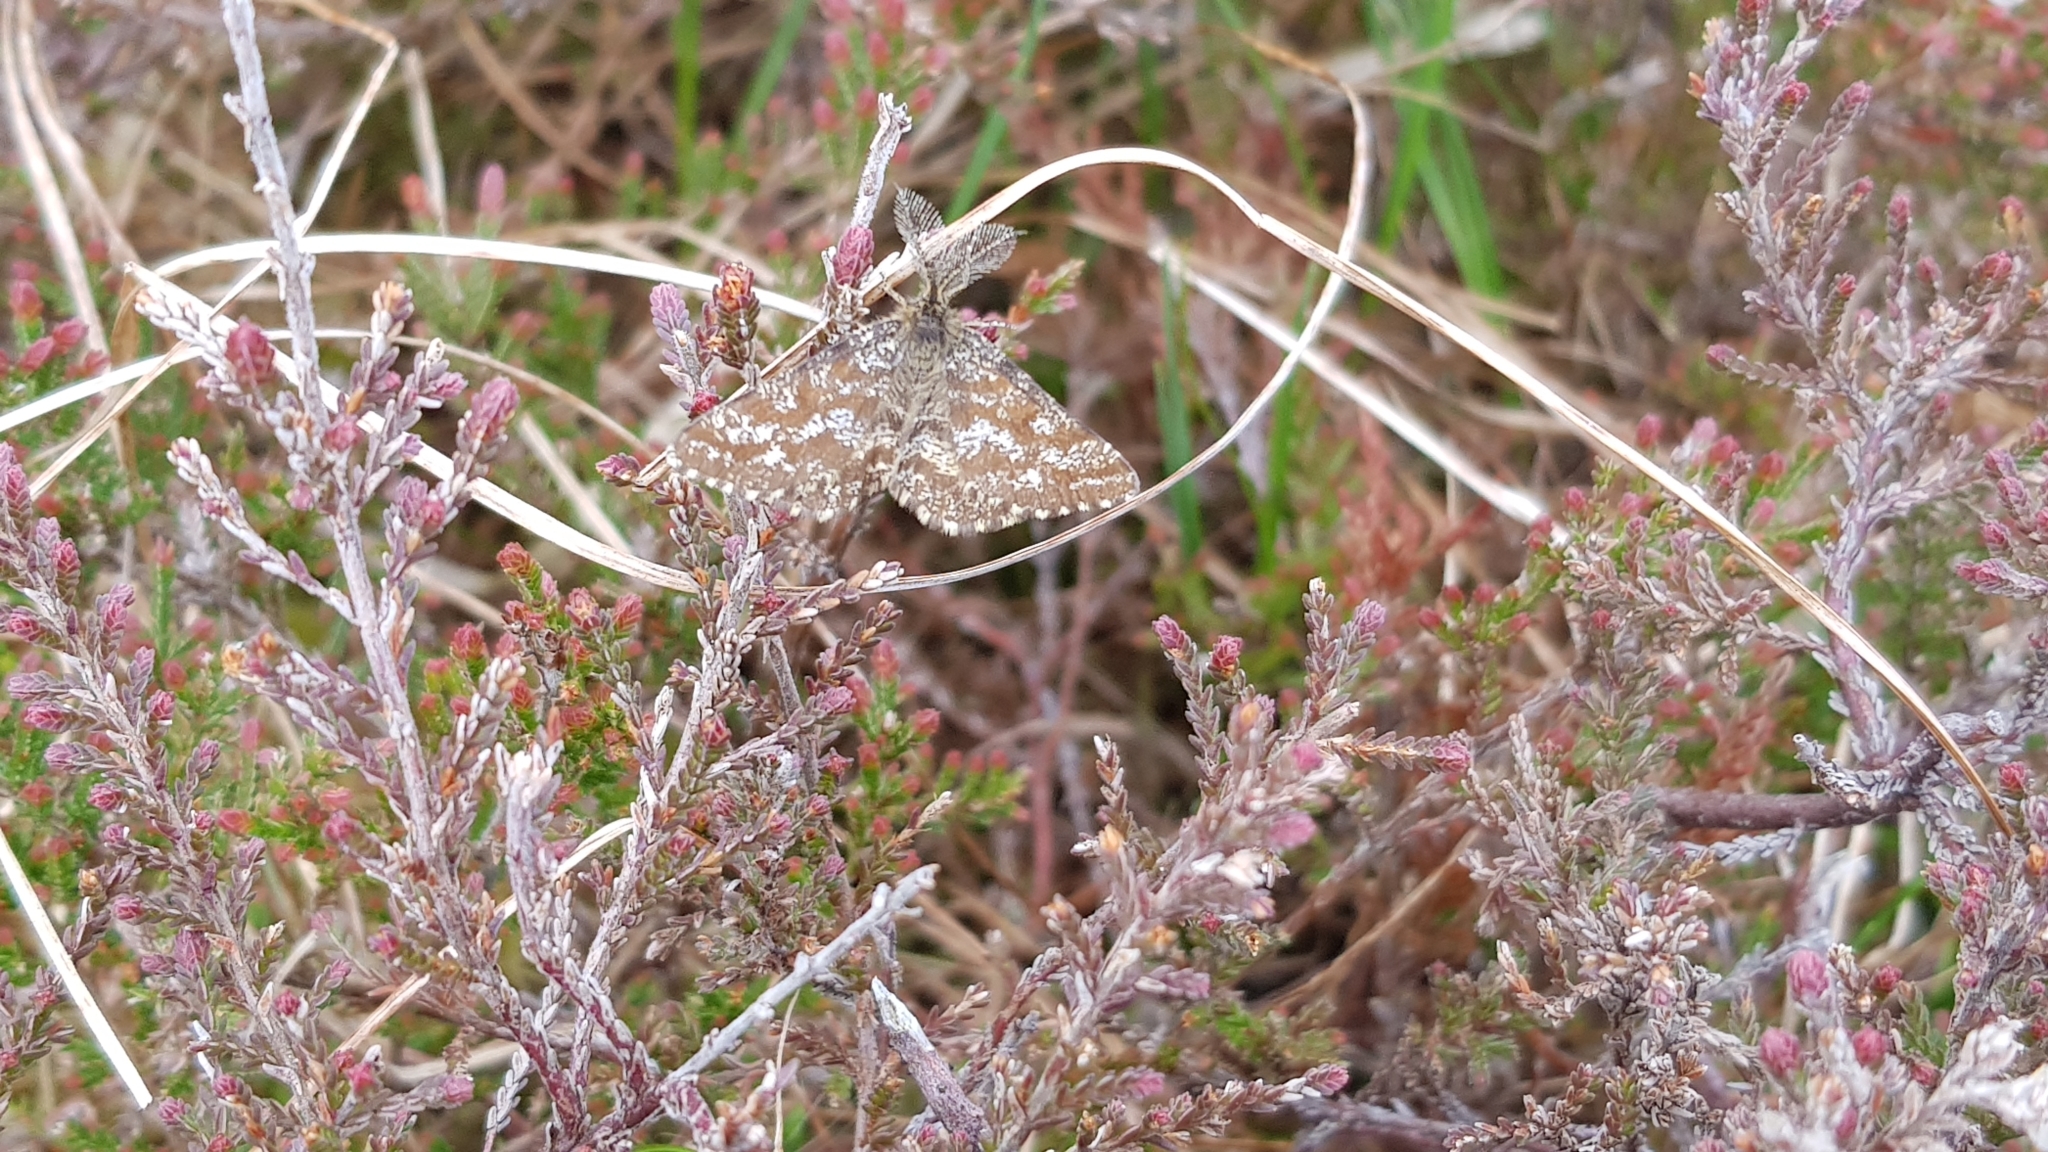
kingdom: Animalia
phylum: Arthropoda
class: Insecta
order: Lepidoptera
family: Geometridae
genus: Ematurga
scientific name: Ematurga atomaria
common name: Common heath
